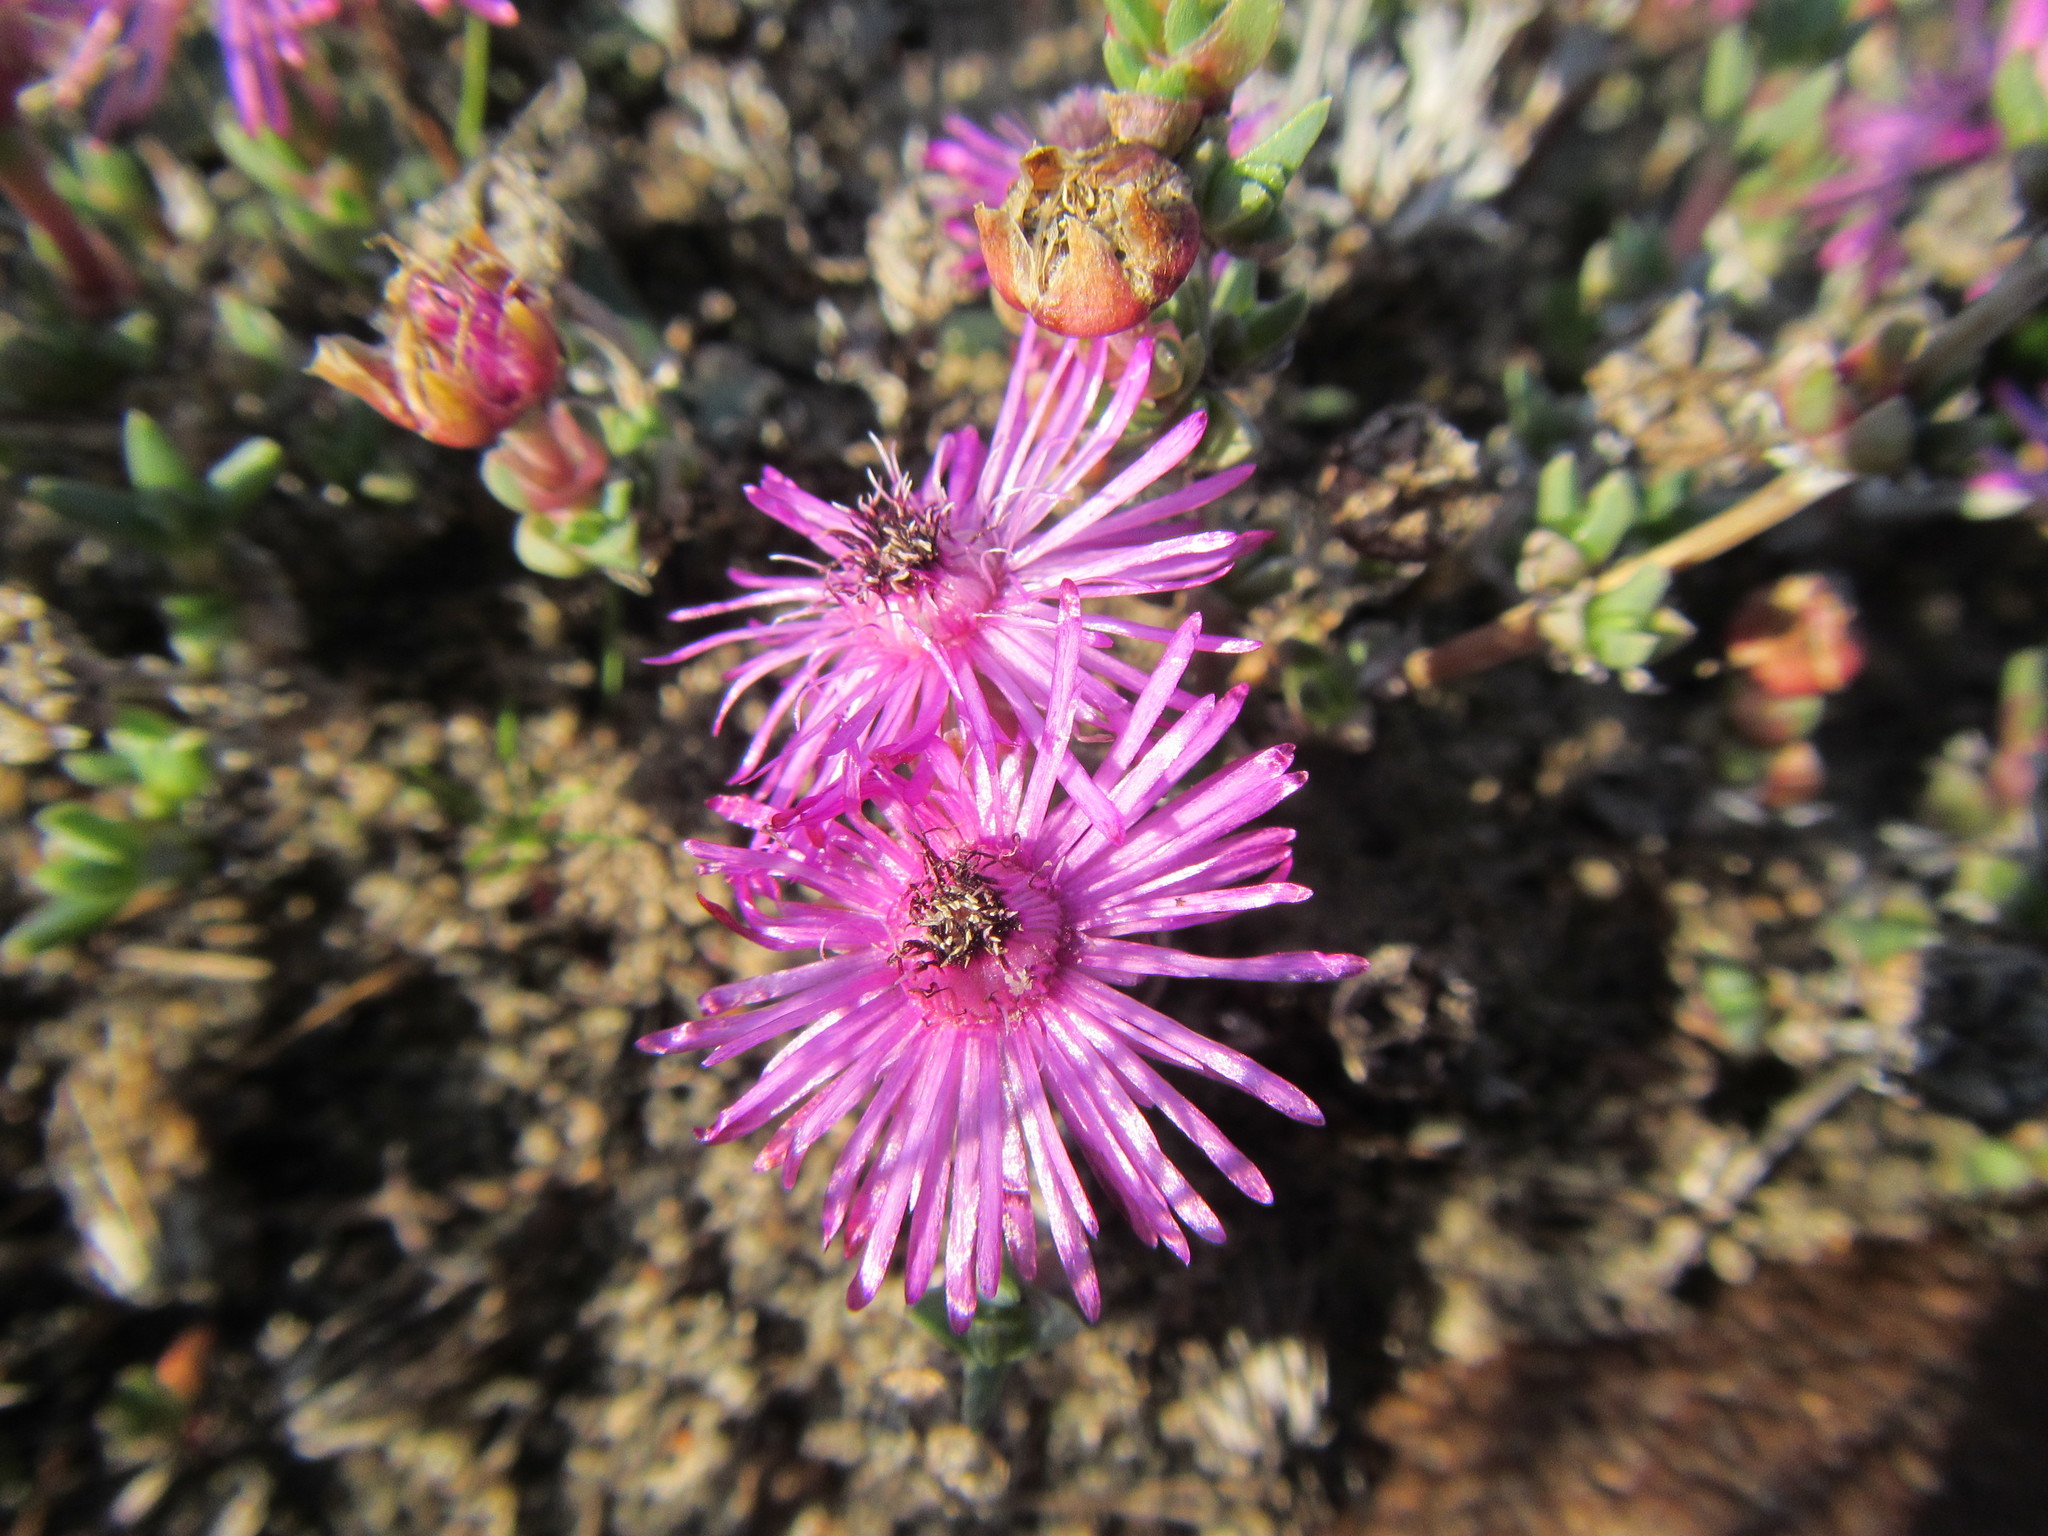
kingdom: Plantae
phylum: Tracheophyta
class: Magnoliopsida
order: Caryophyllales
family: Aizoaceae
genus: Antimima
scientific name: Antimima aristulata
